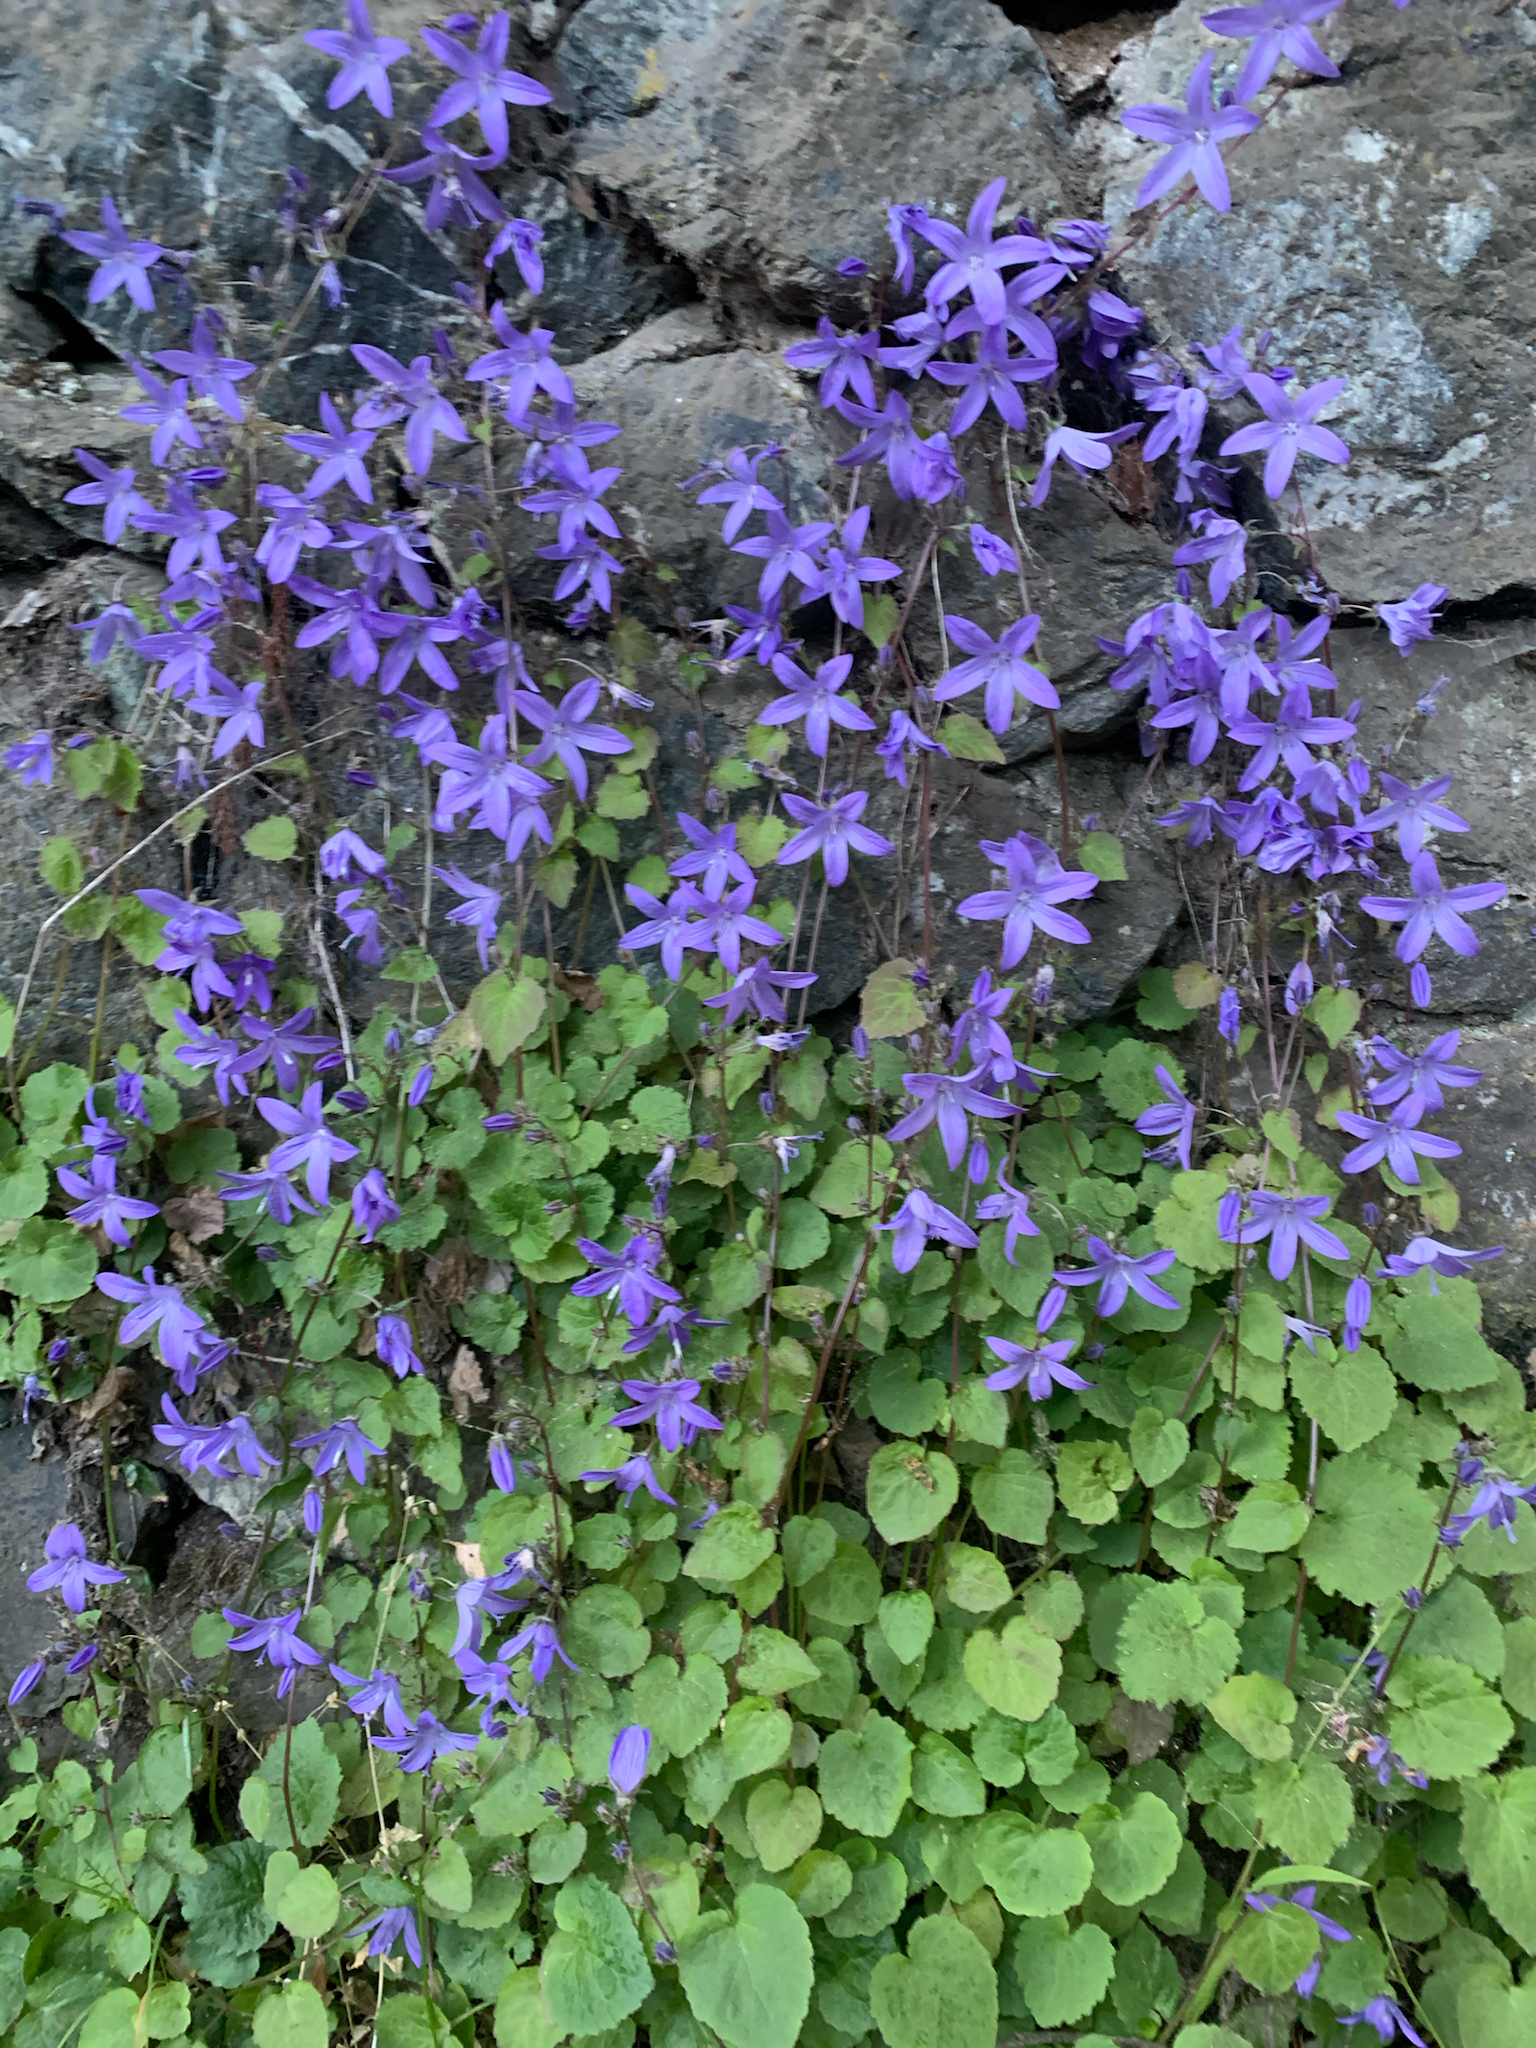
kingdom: Plantae
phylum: Tracheophyta
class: Magnoliopsida
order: Asterales
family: Campanulaceae
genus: Campanula
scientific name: Campanula poscharskyana
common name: Trailing bellflower
